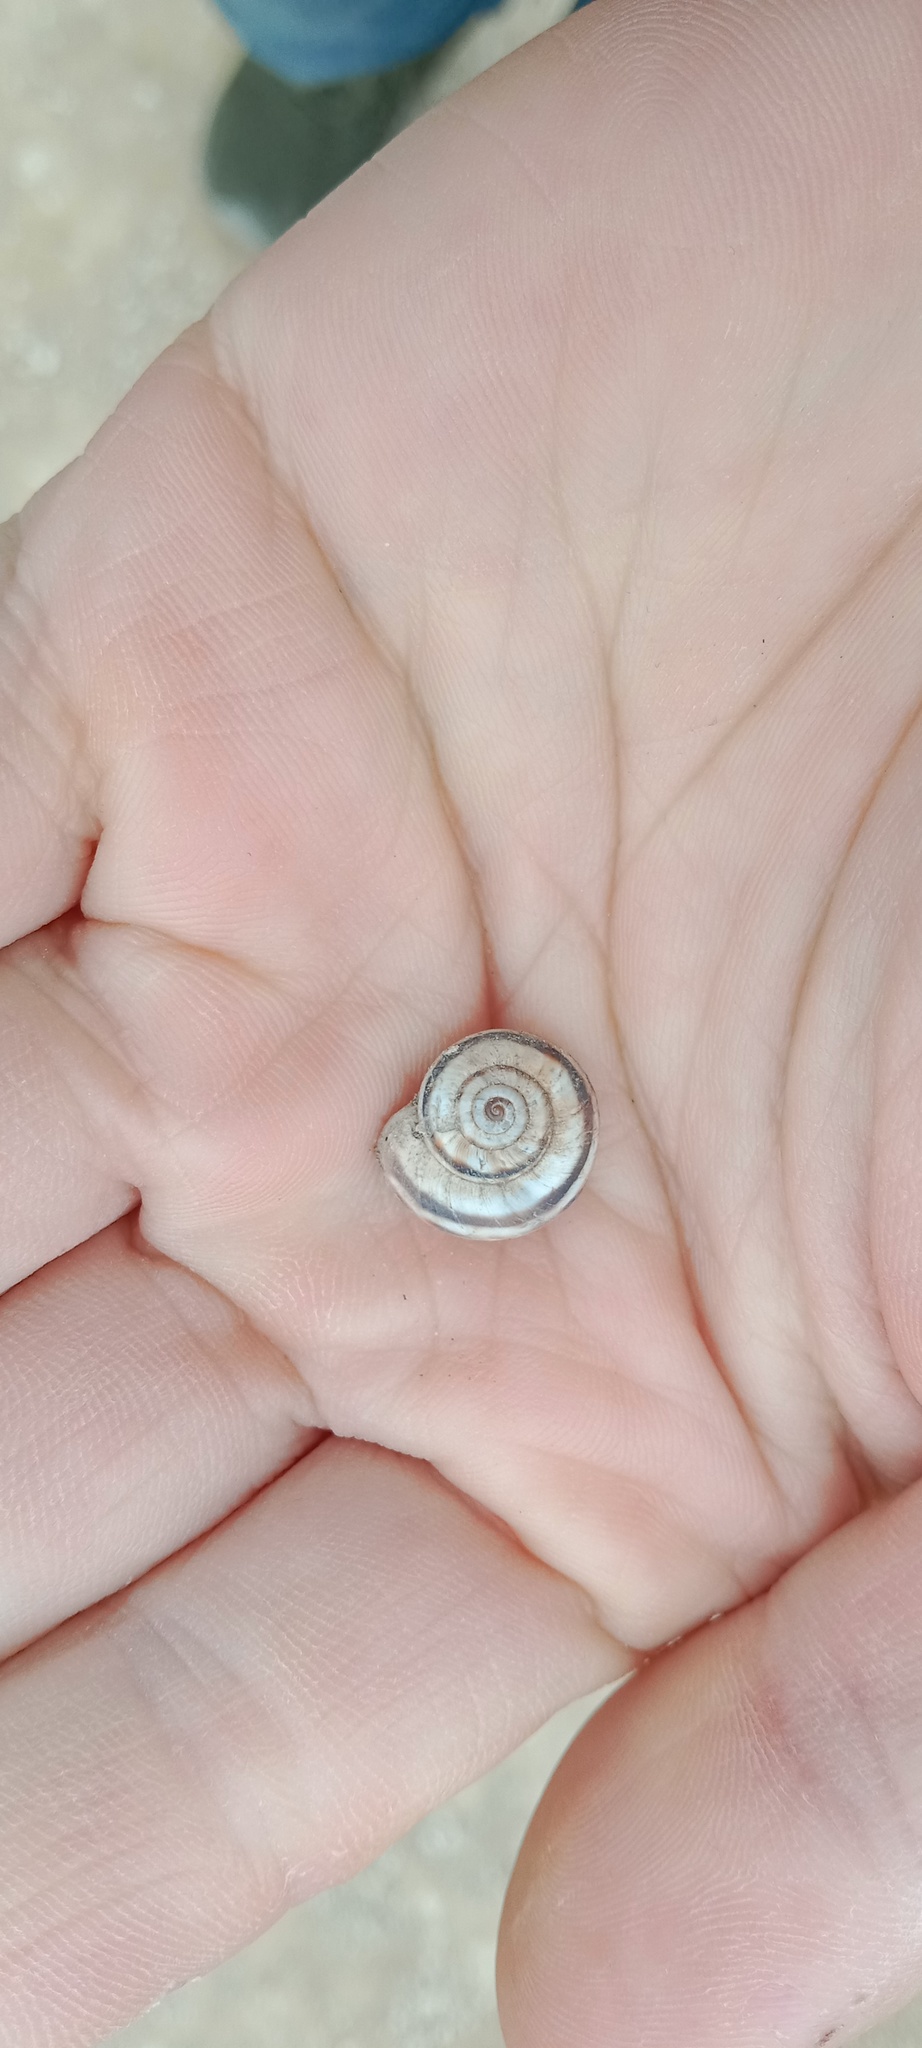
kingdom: Animalia
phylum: Mollusca
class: Gastropoda
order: Stylommatophora
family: Geomitridae
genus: Xerolenta
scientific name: Xerolenta obvia
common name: White heath snail
